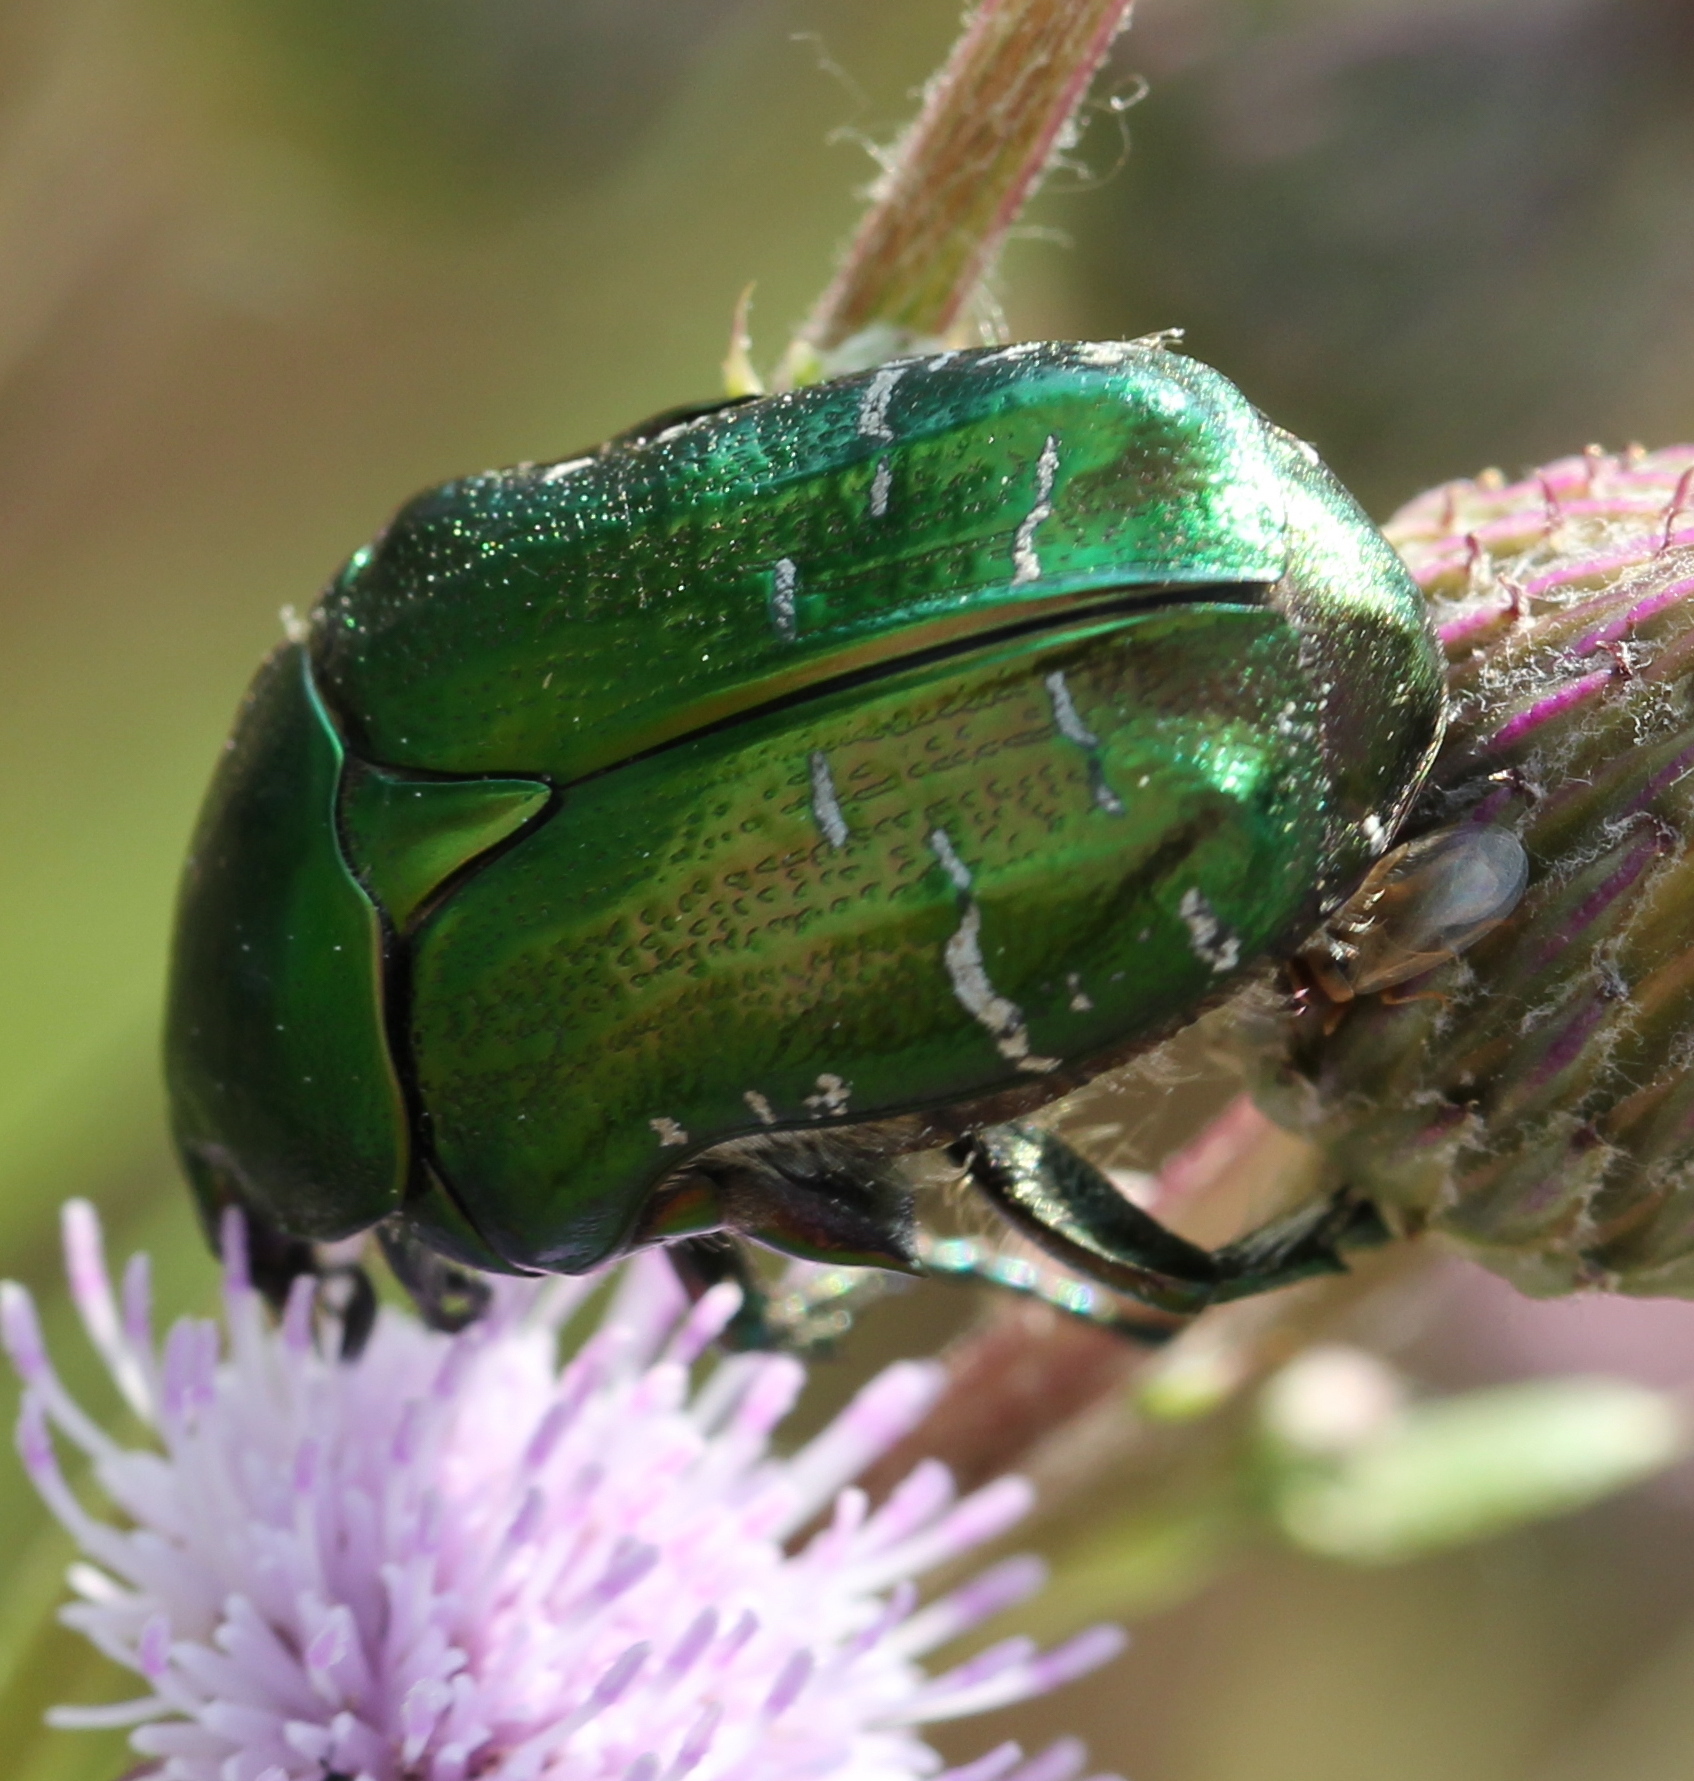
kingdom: Animalia
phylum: Arthropoda
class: Insecta
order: Coleoptera
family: Scarabaeidae
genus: Cetonia
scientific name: Cetonia aurata
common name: Rose chafer
